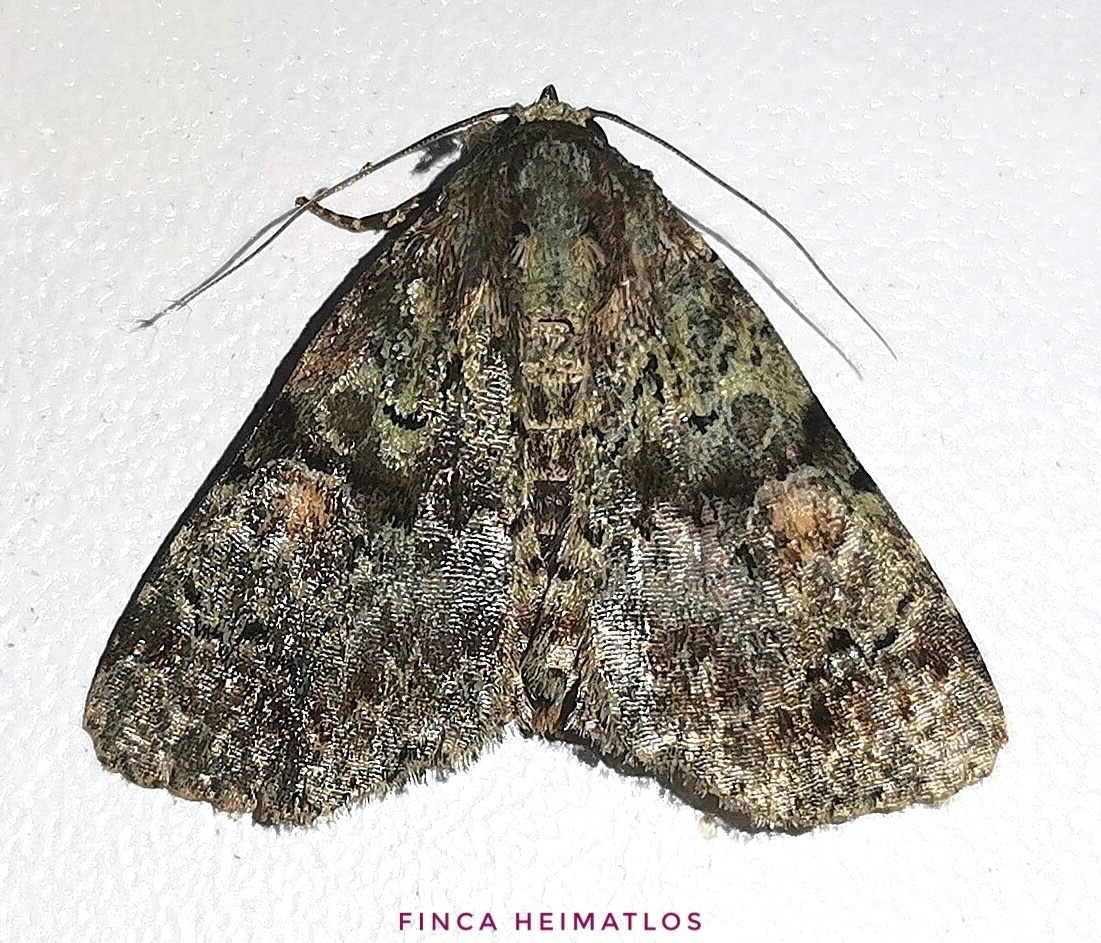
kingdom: Animalia
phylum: Arthropoda
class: Insecta
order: Lepidoptera
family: Erebidae
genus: Eudyops
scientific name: Eudyops fuscoviridis
